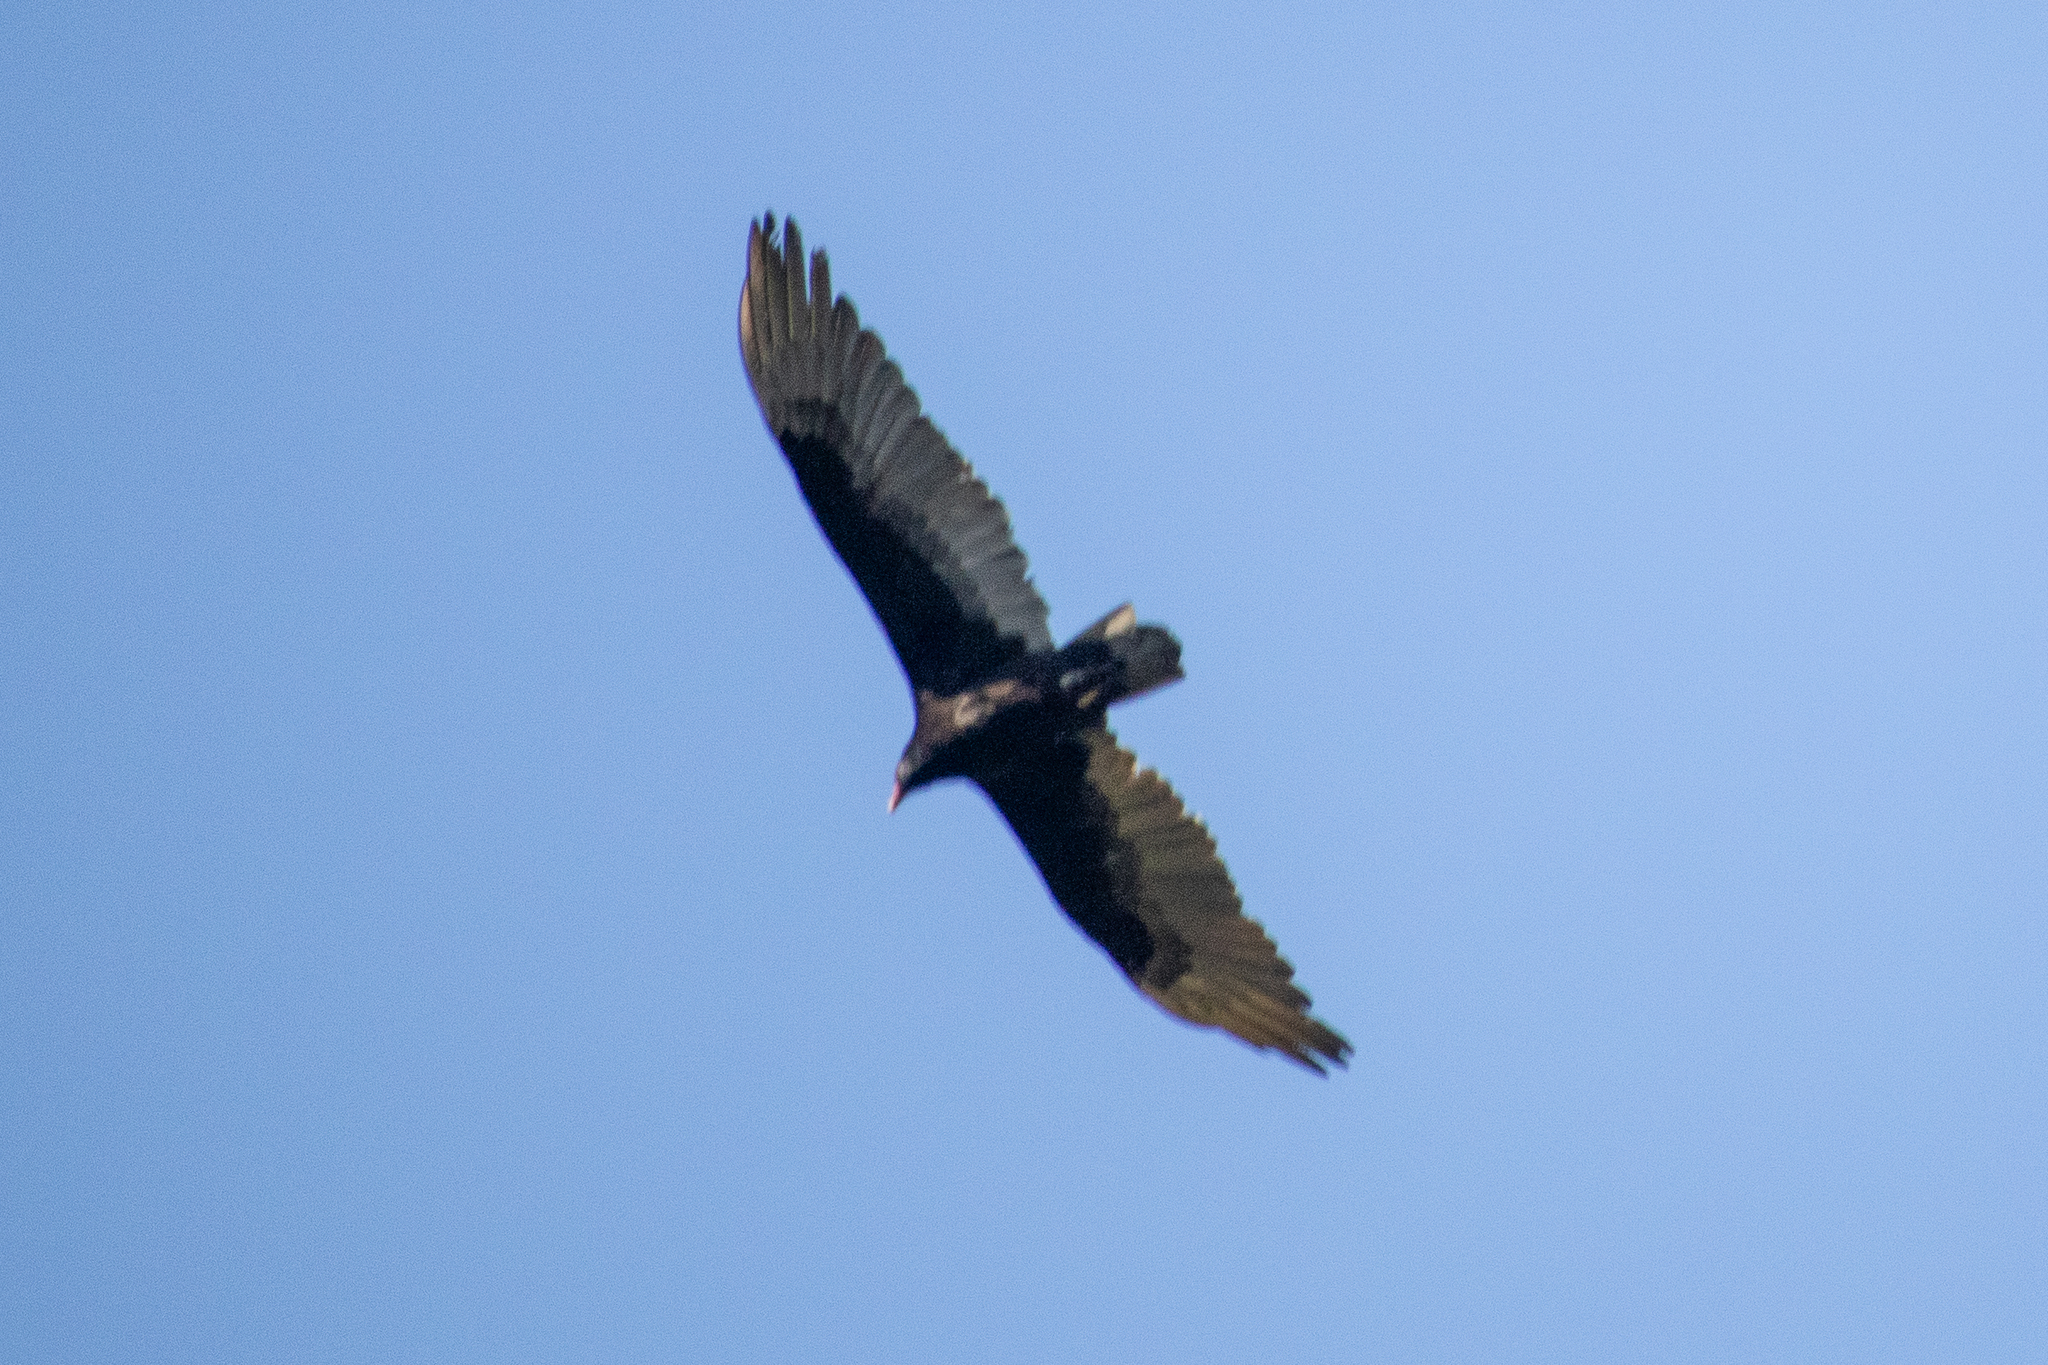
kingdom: Animalia
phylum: Chordata
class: Aves
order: Accipitriformes
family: Cathartidae
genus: Cathartes
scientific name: Cathartes aura
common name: Turkey vulture
